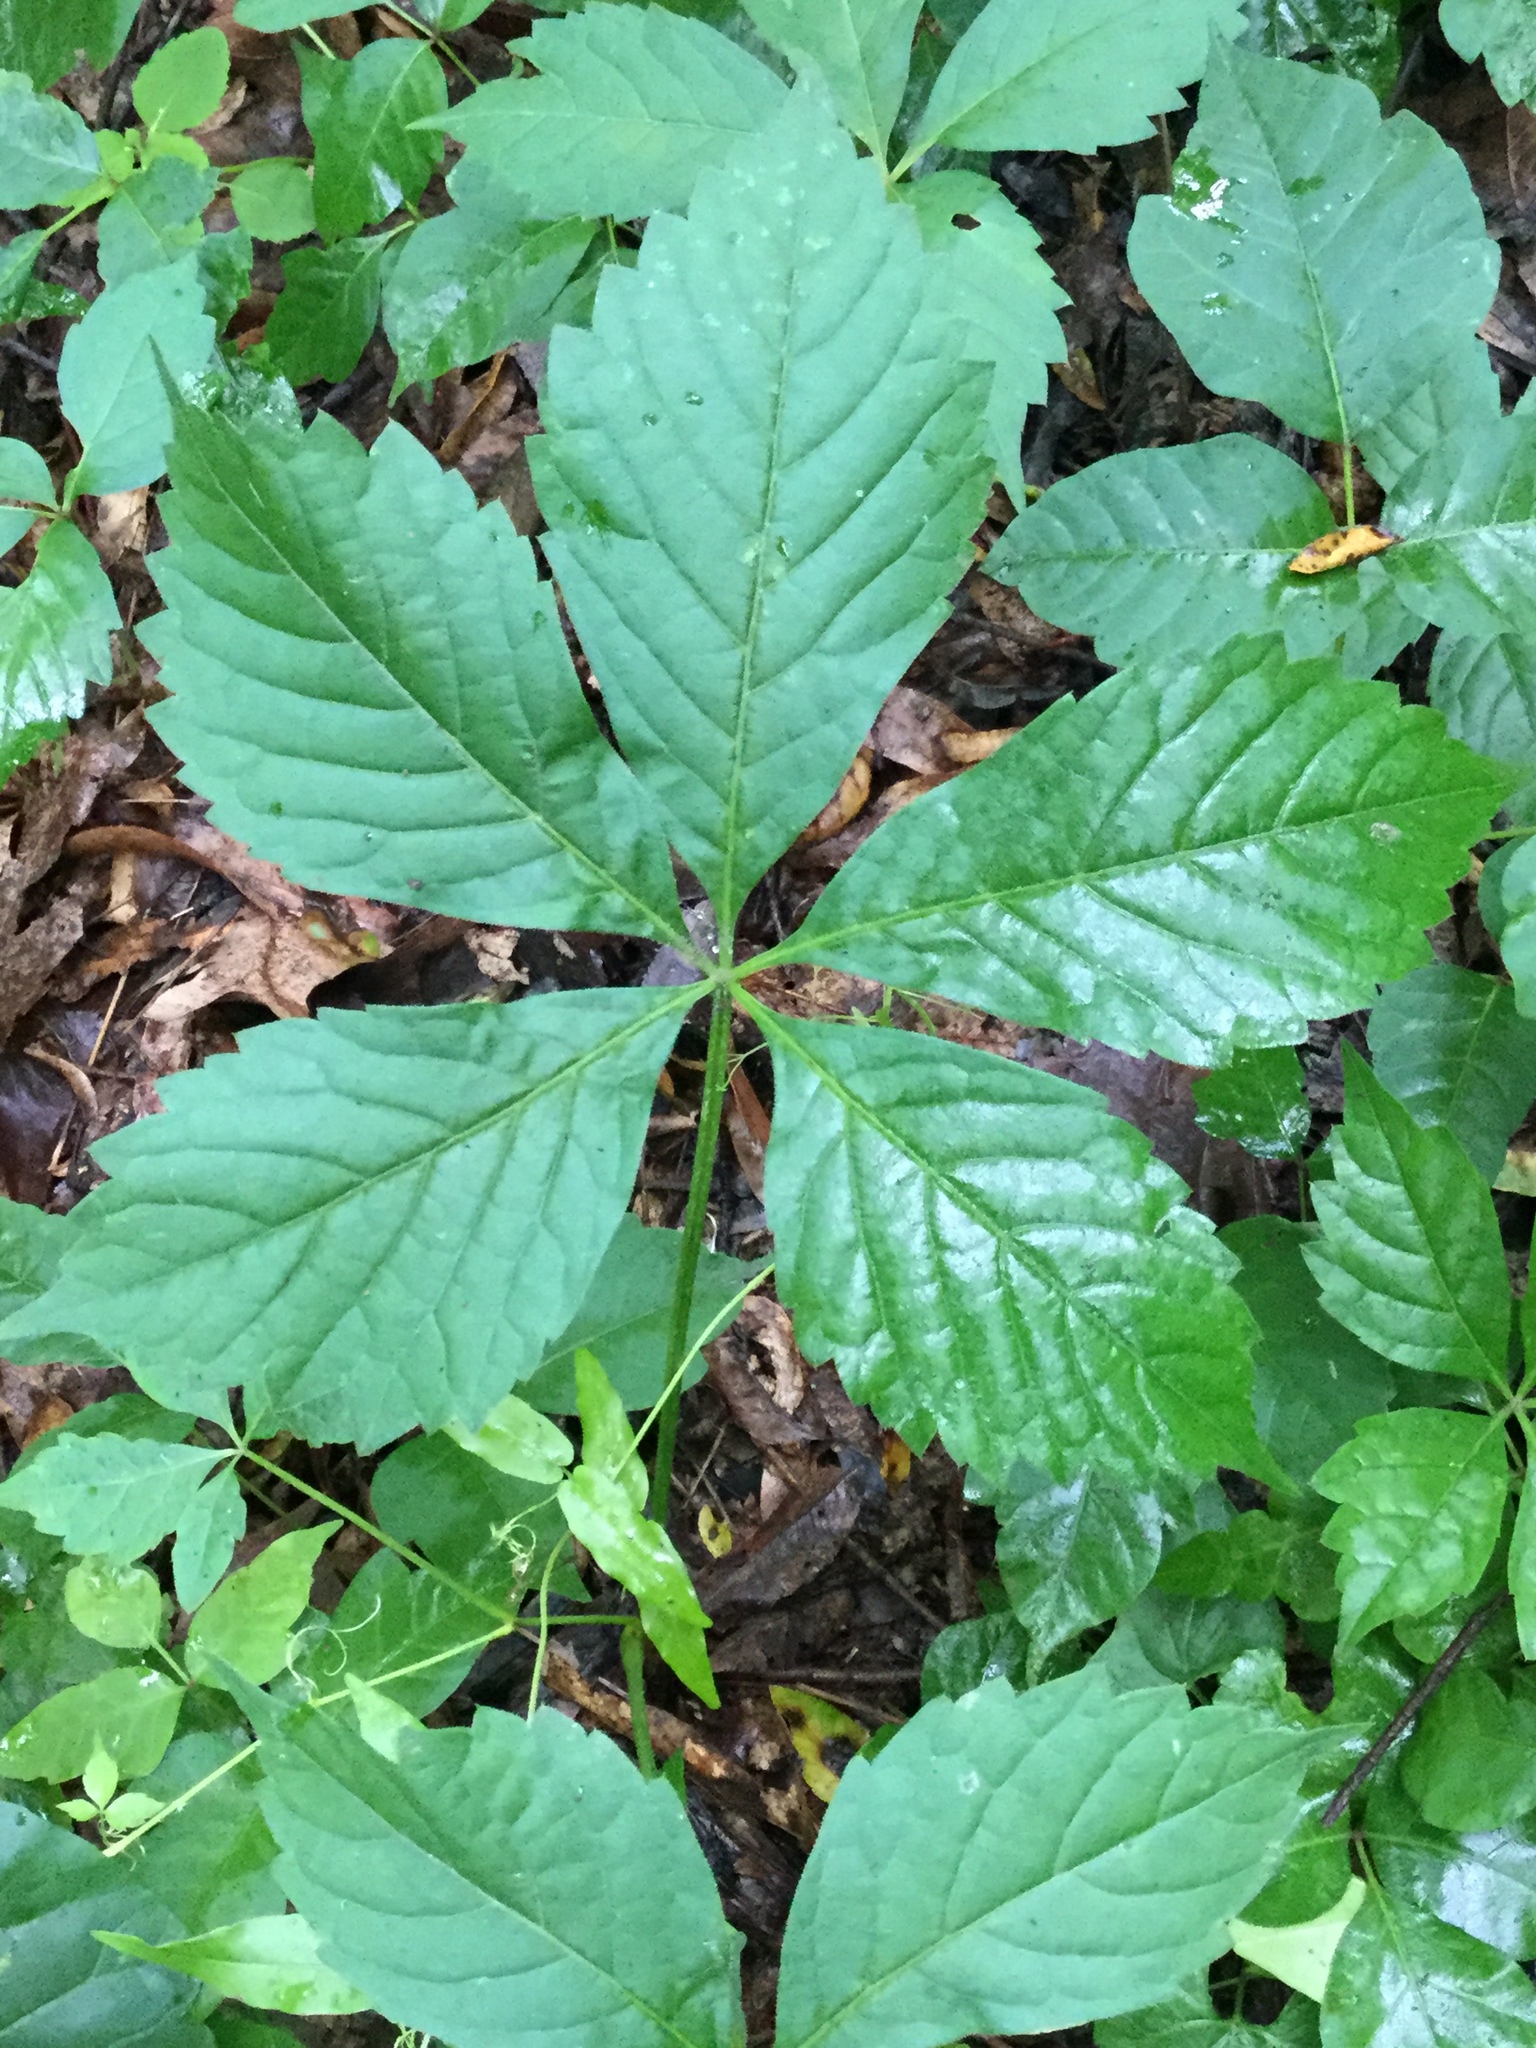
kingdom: Plantae
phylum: Tracheophyta
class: Magnoliopsida
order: Vitales
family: Vitaceae
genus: Parthenocissus
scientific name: Parthenocissus quinquefolia
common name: Virginia-creeper
